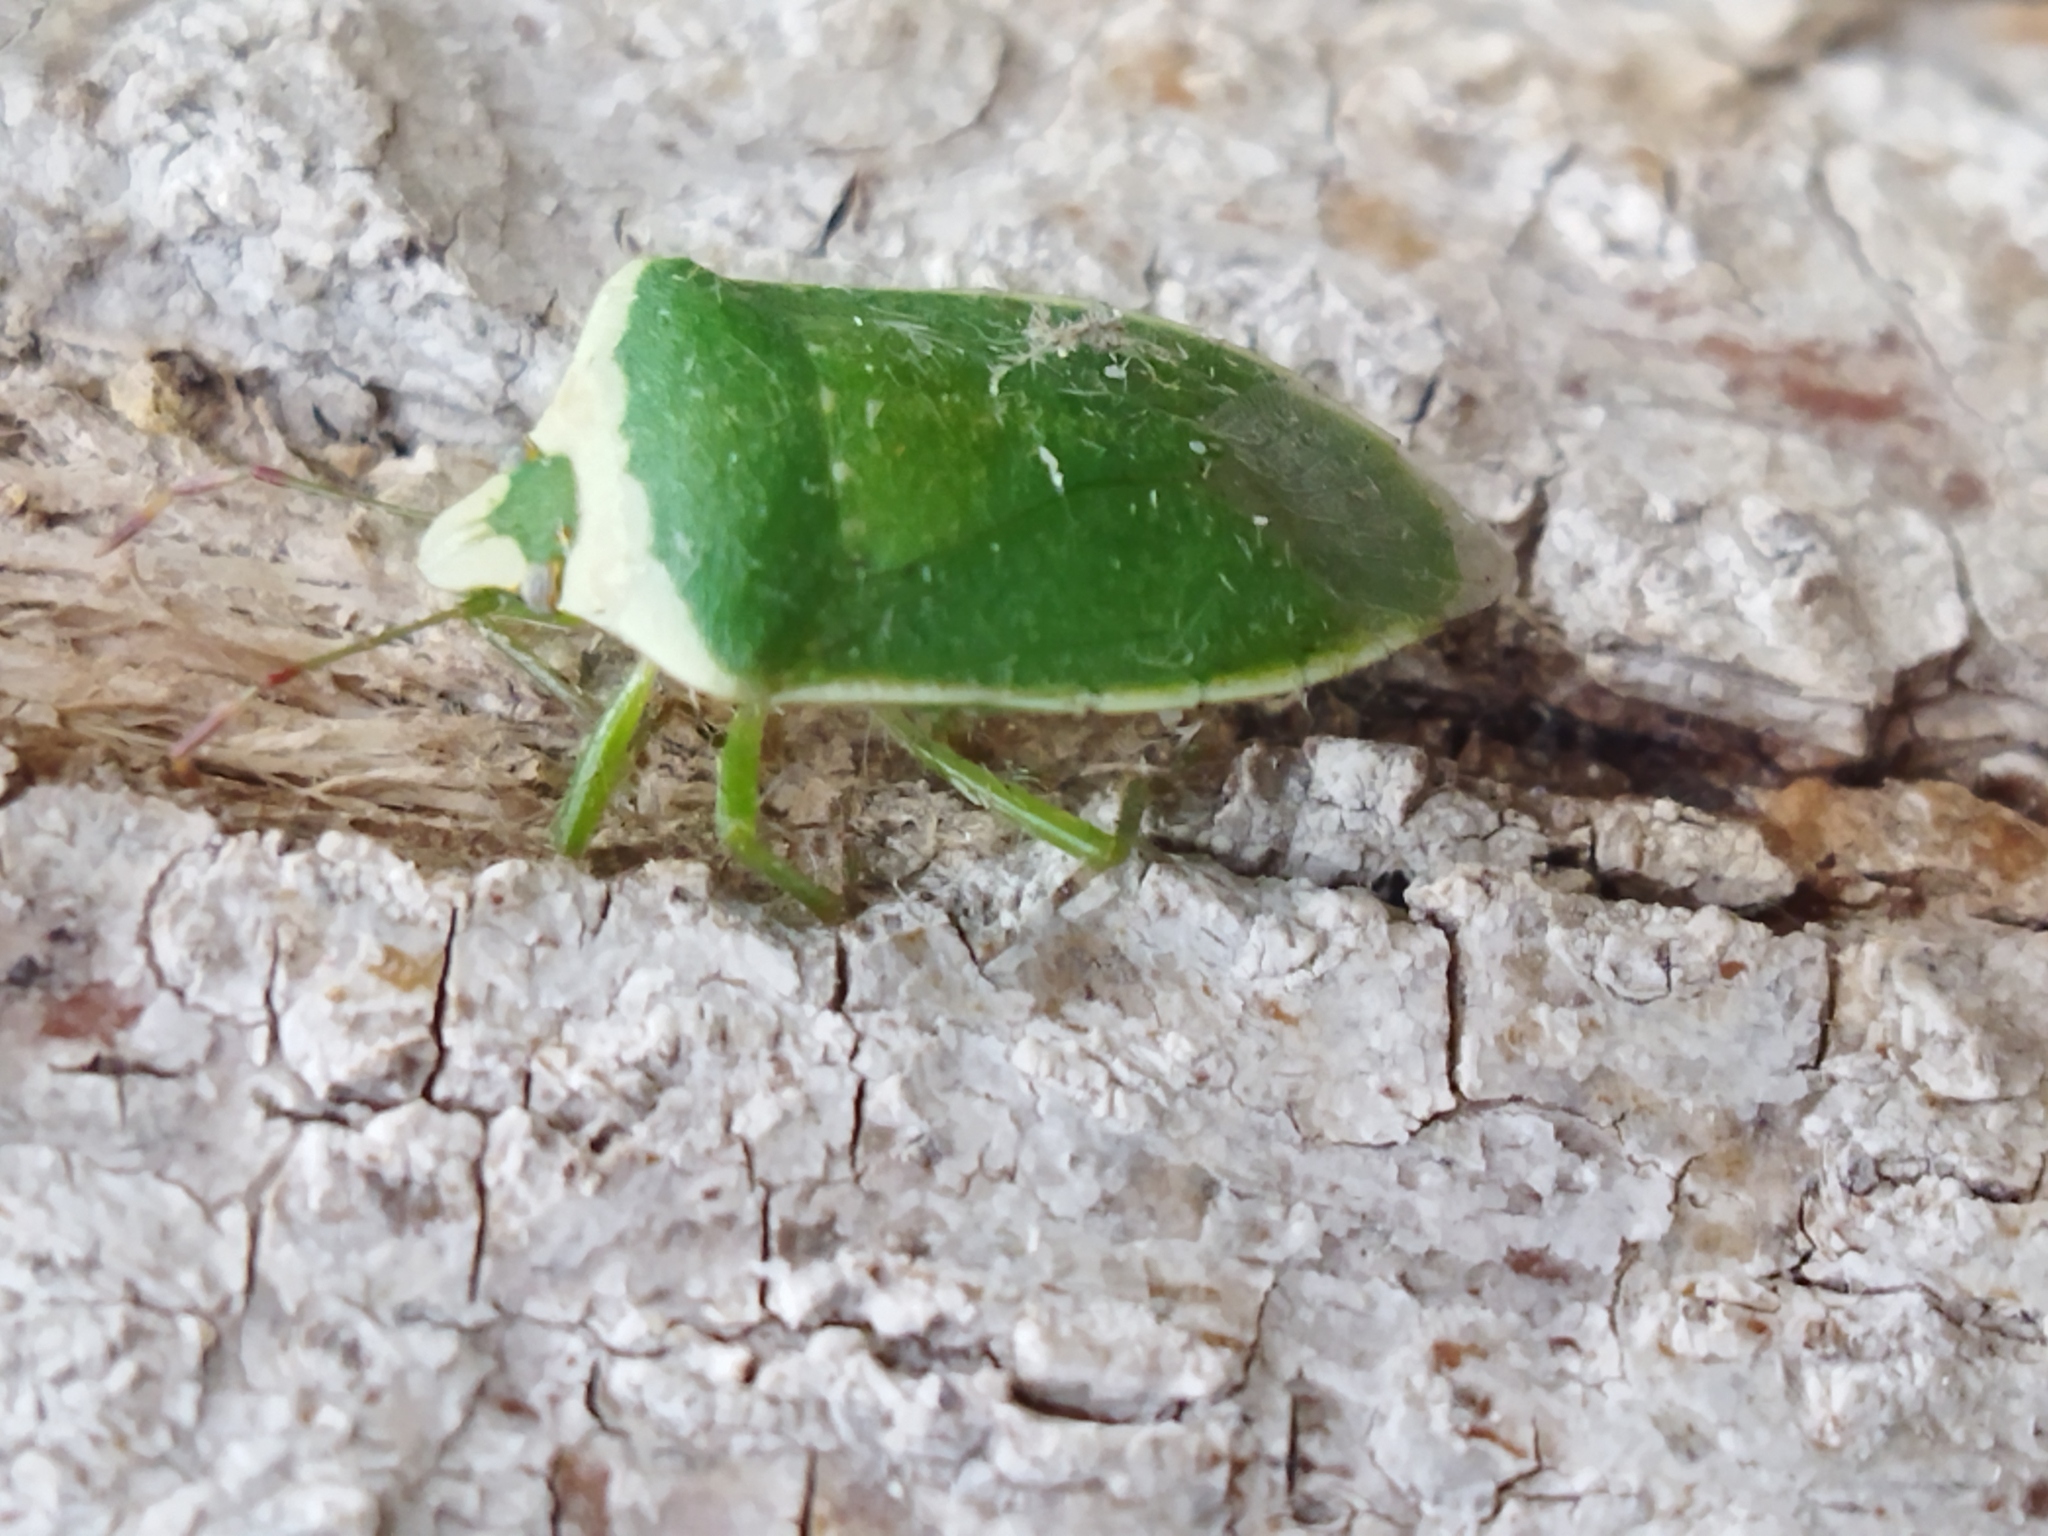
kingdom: Animalia
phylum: Arthropoda
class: Insecta
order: Hemiptera
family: Pentatomidae
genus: Nezara
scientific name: Nezara viridula
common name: Southern green stink bug
